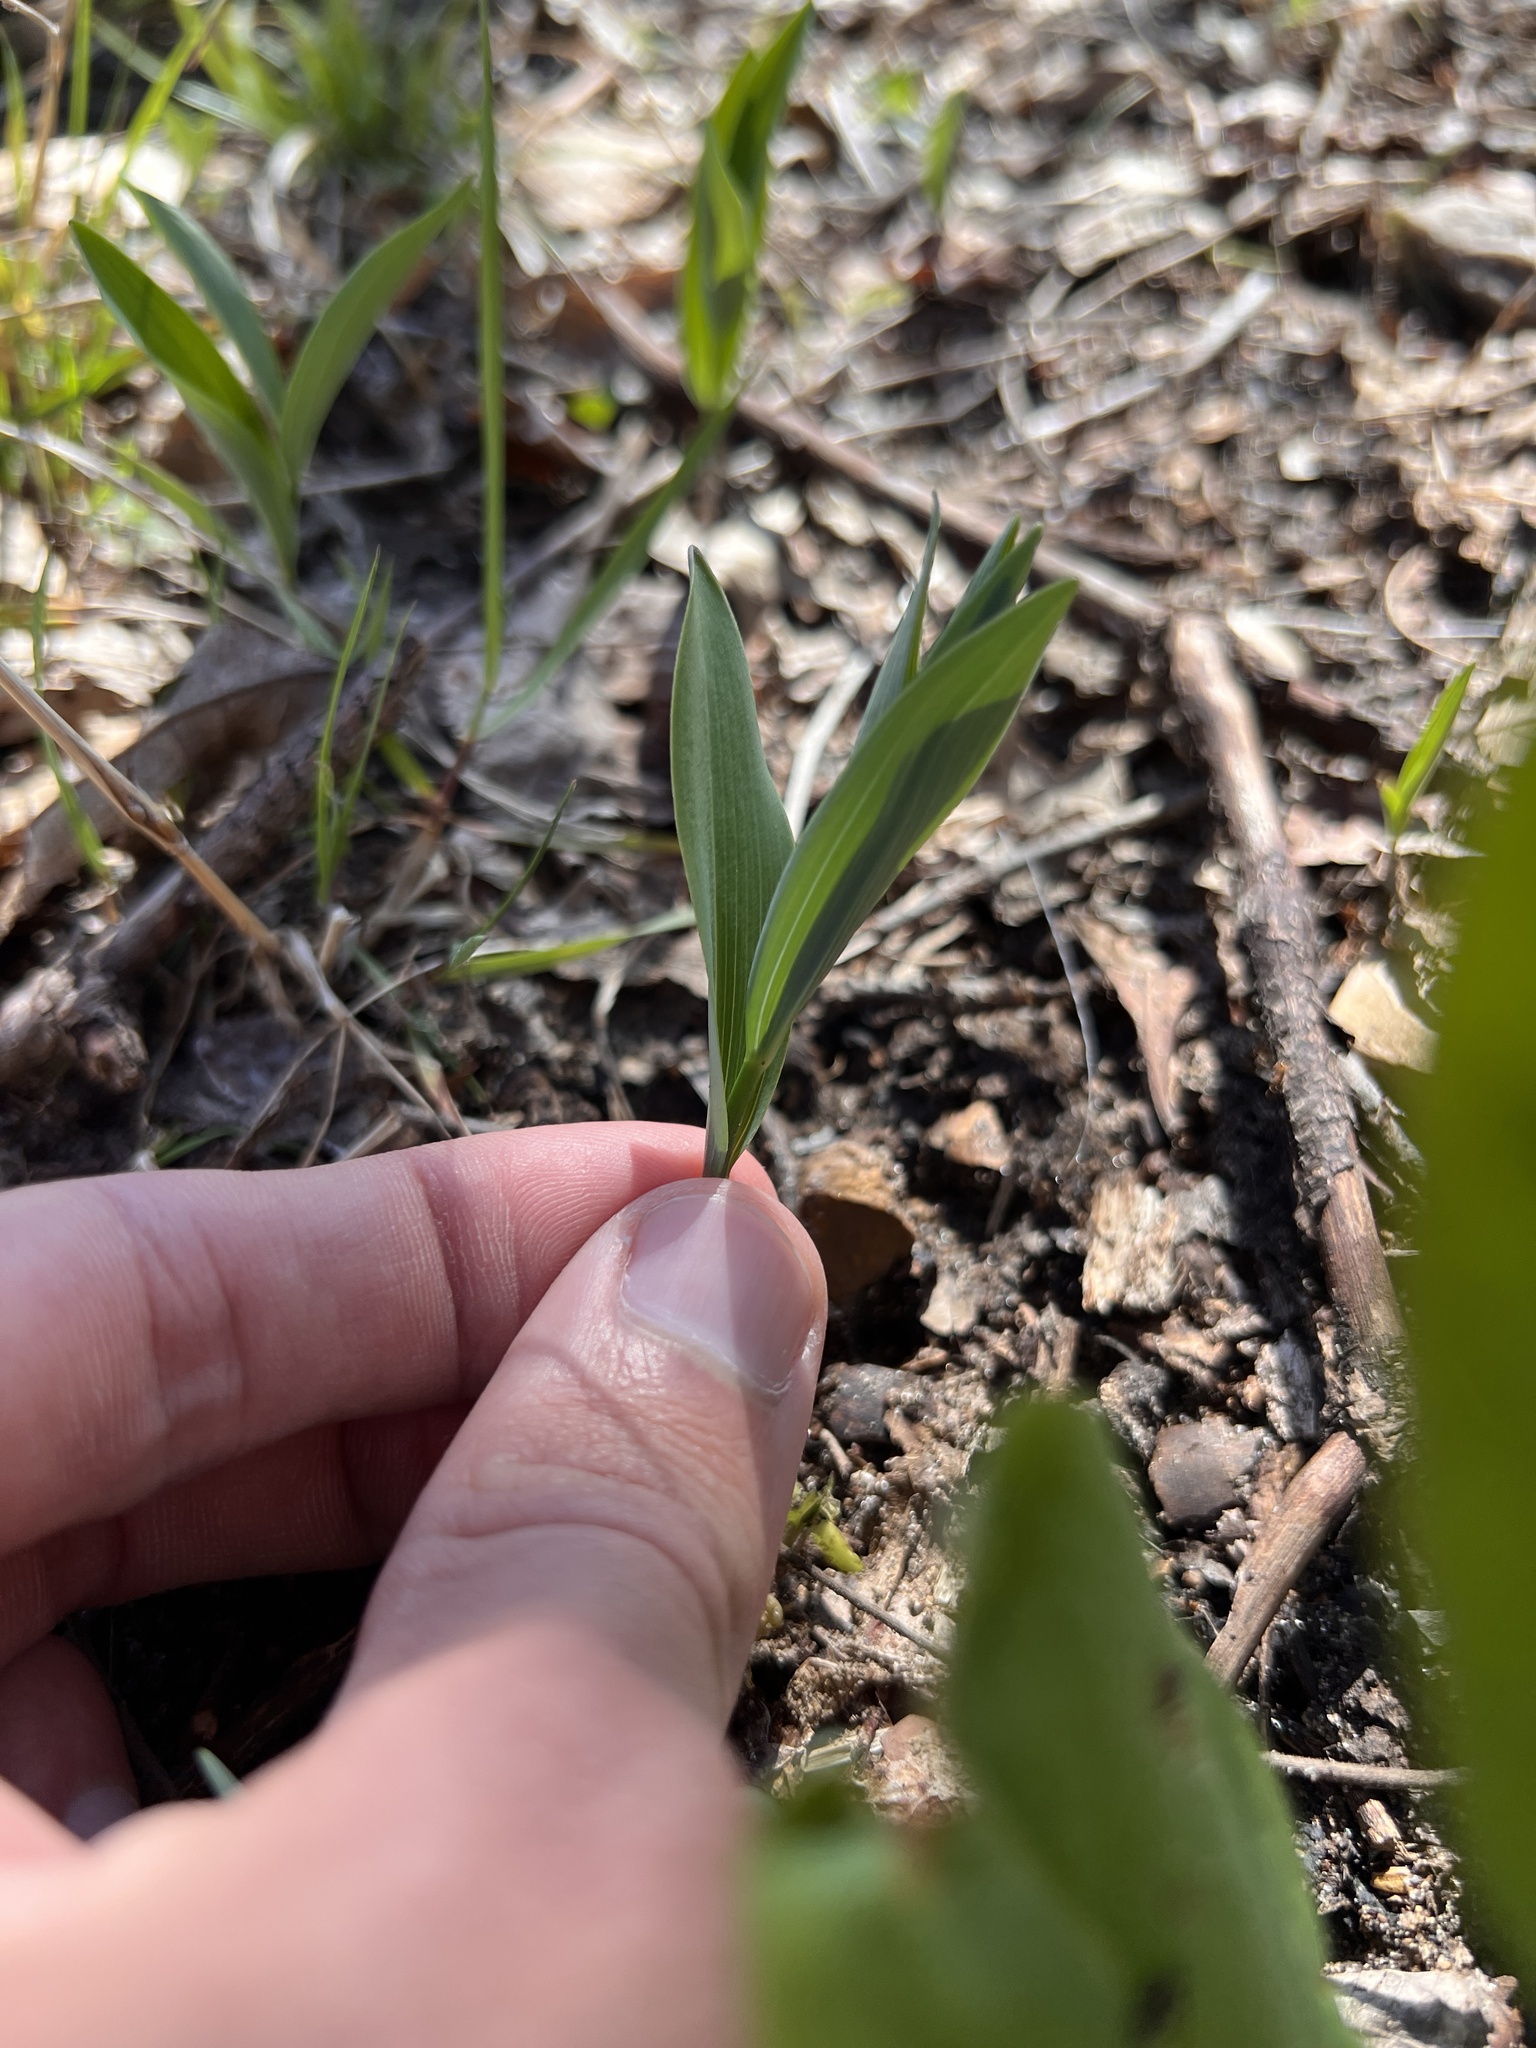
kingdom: Plantae
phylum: Tracheophyta
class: Liliopsida
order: Asparagales
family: Asparagaceae
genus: Polygonatum
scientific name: Polygonatum biflorum
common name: American solomon's-seal
